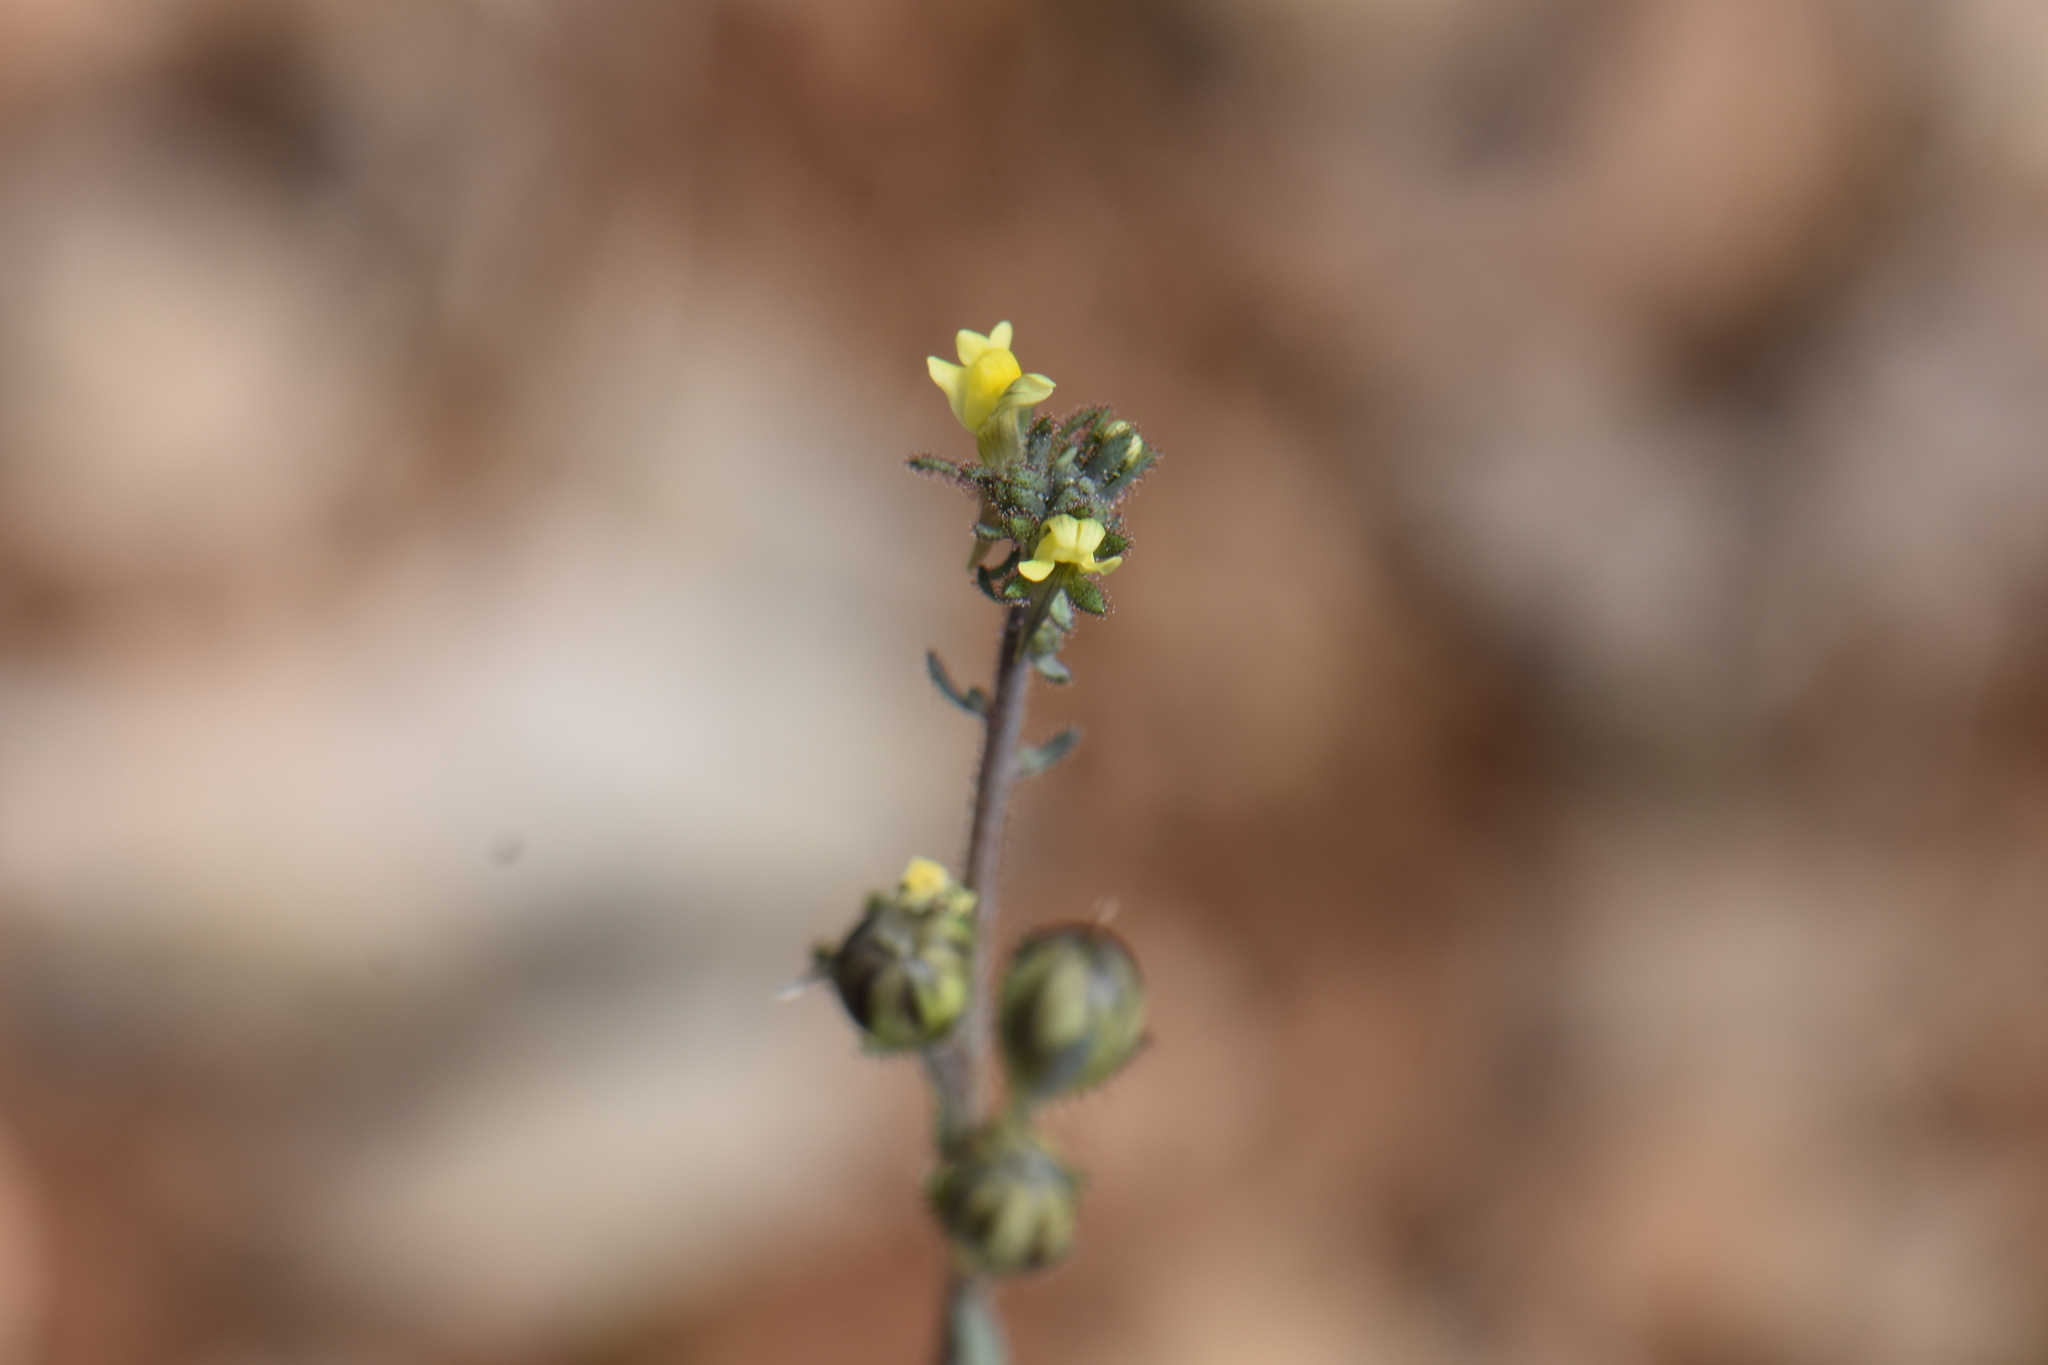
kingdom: Plantae
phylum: Tracheophyta
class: Magnoliopsida
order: Lamiales
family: Plantaginaceae
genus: Linaria
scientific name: Linaria simplex
